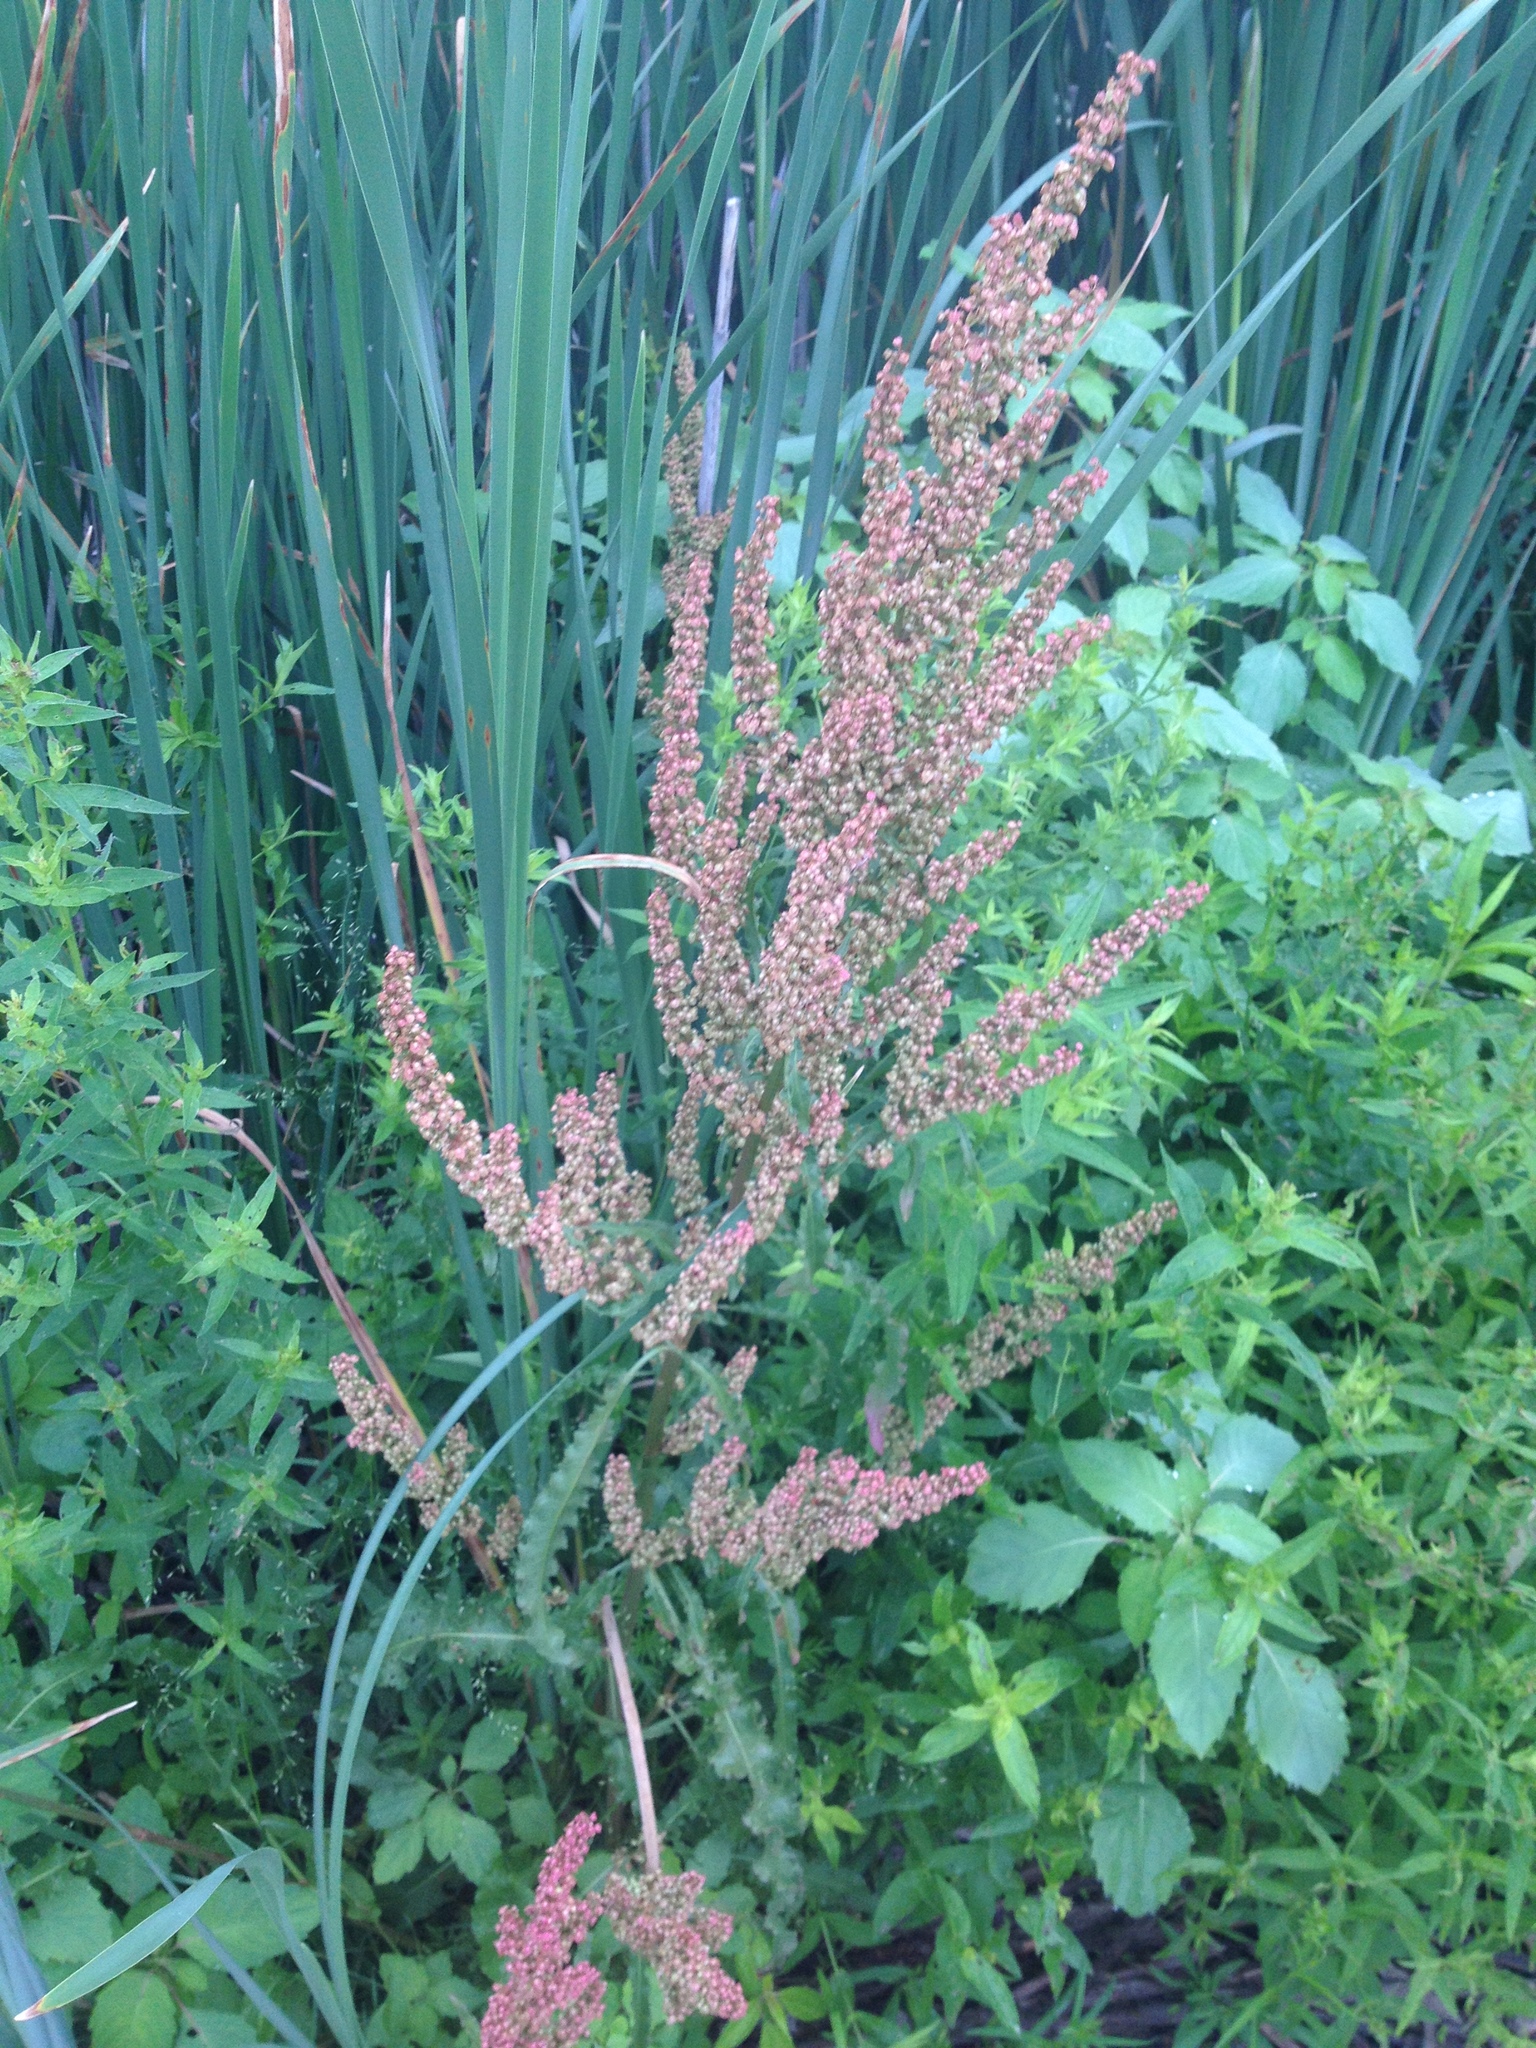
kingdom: Plantae
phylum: Tracheophyta
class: Magnoliopsida
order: Caryophyllales
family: Polygonaceae
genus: Rumex
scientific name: Rumex crispus
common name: Curled dock
